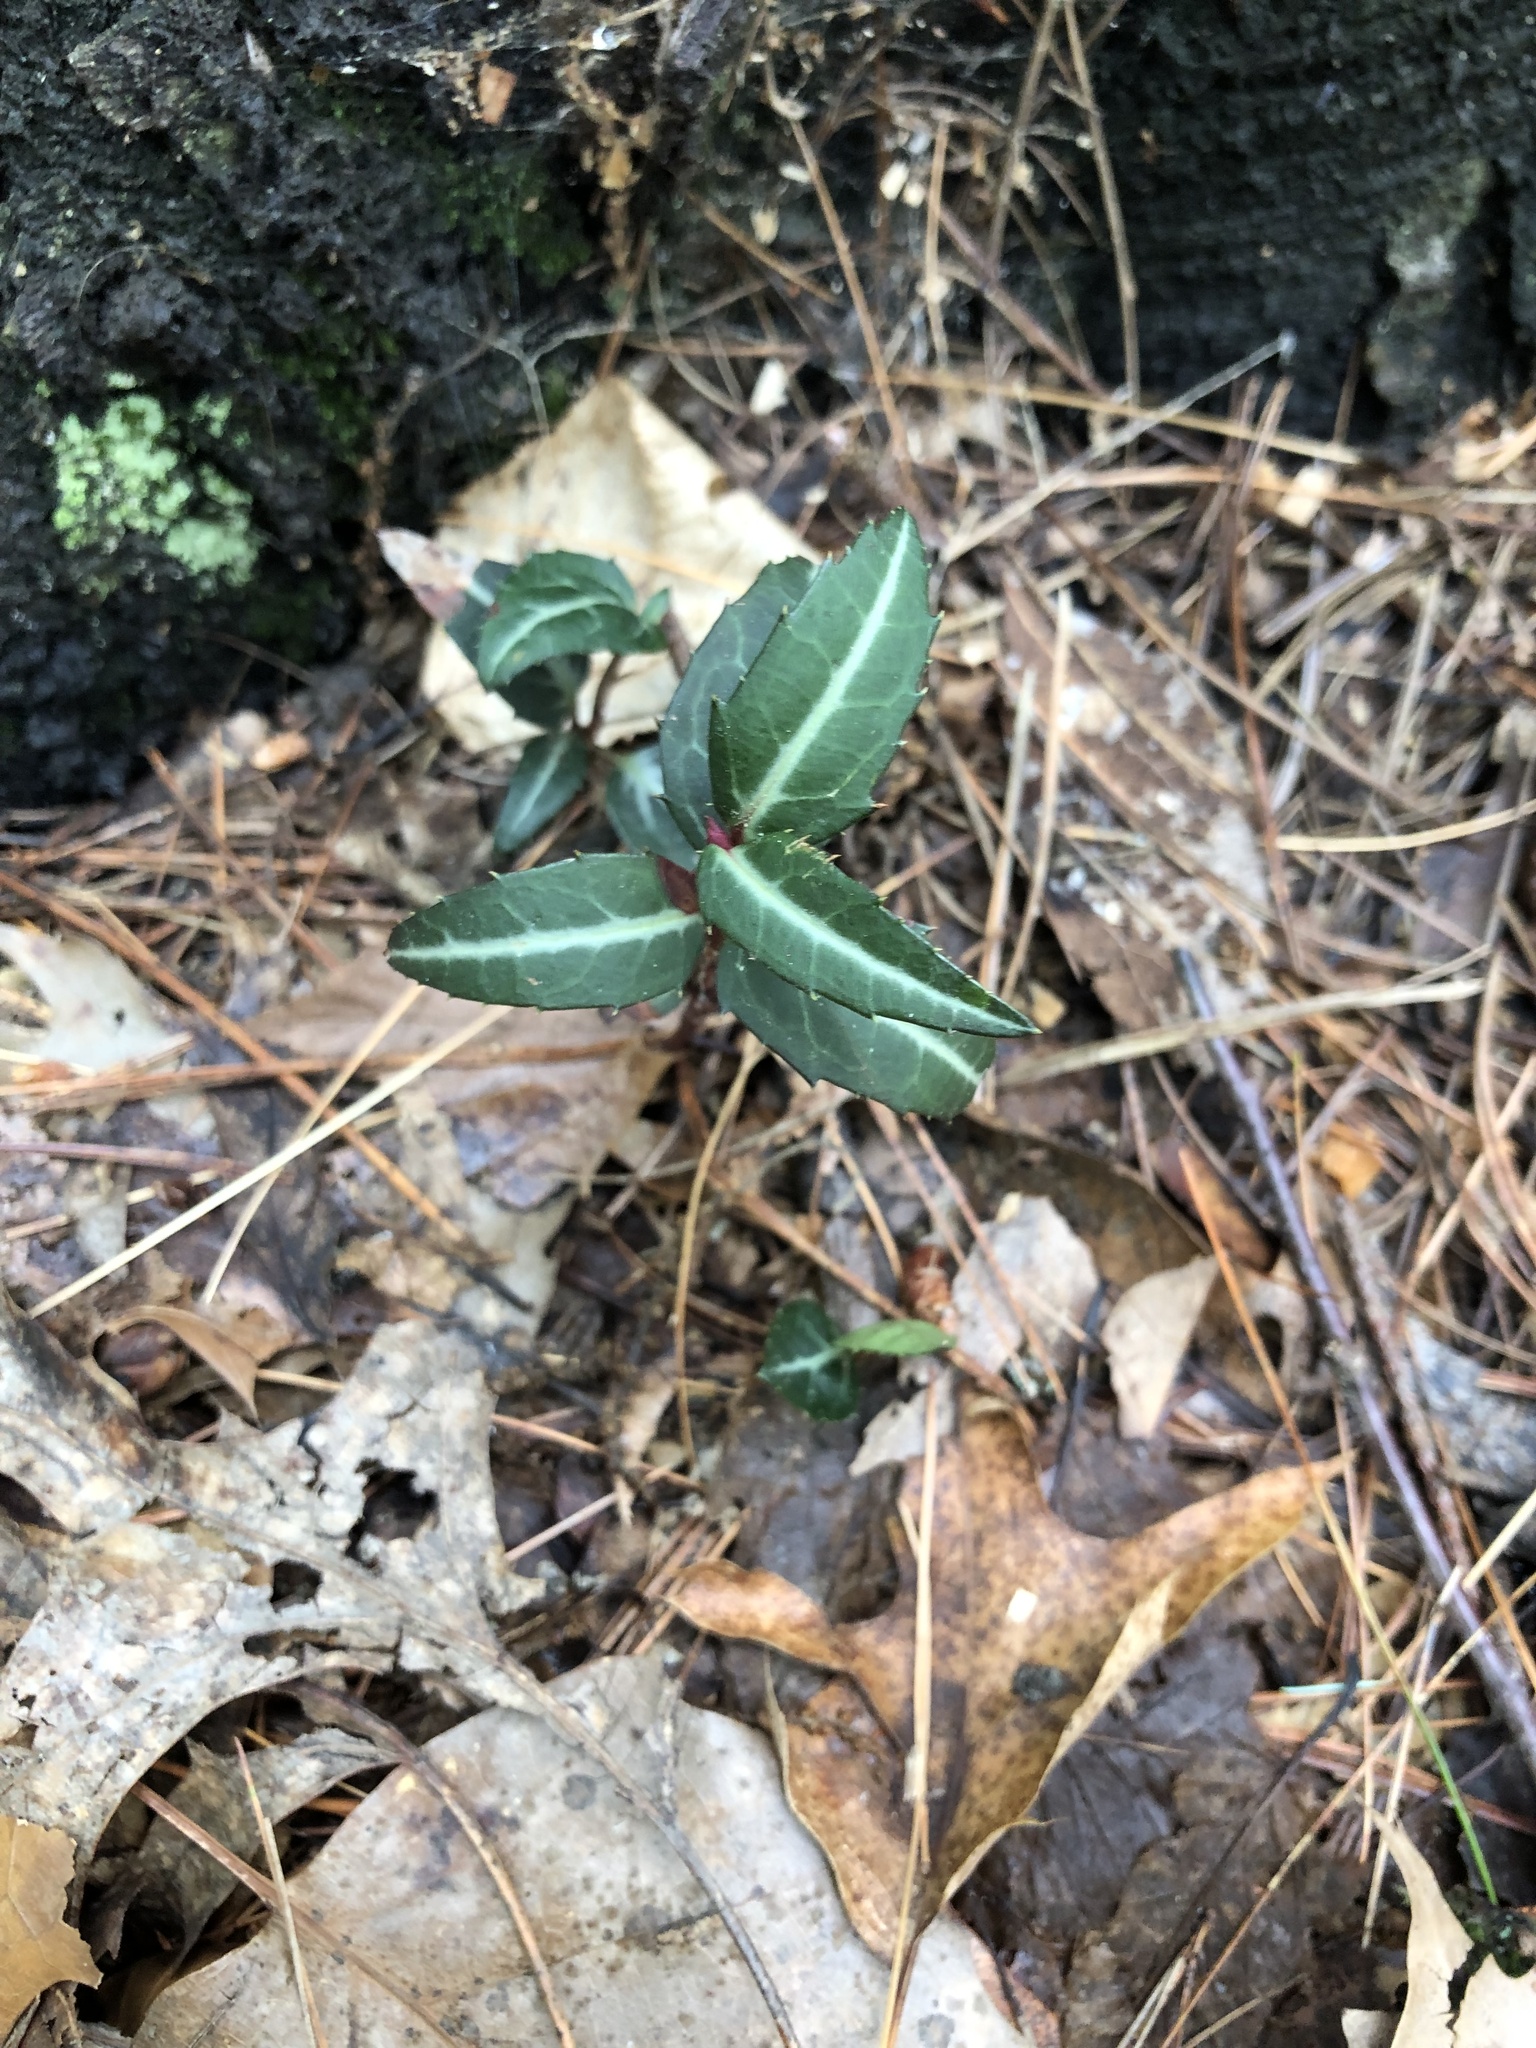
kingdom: Plantae
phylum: Tracheophyta
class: Magnoliopsida
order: Ericales
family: Ericaceae
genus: Chimaphila
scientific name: Chimaphila maculata
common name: Spotted pipsissewa
